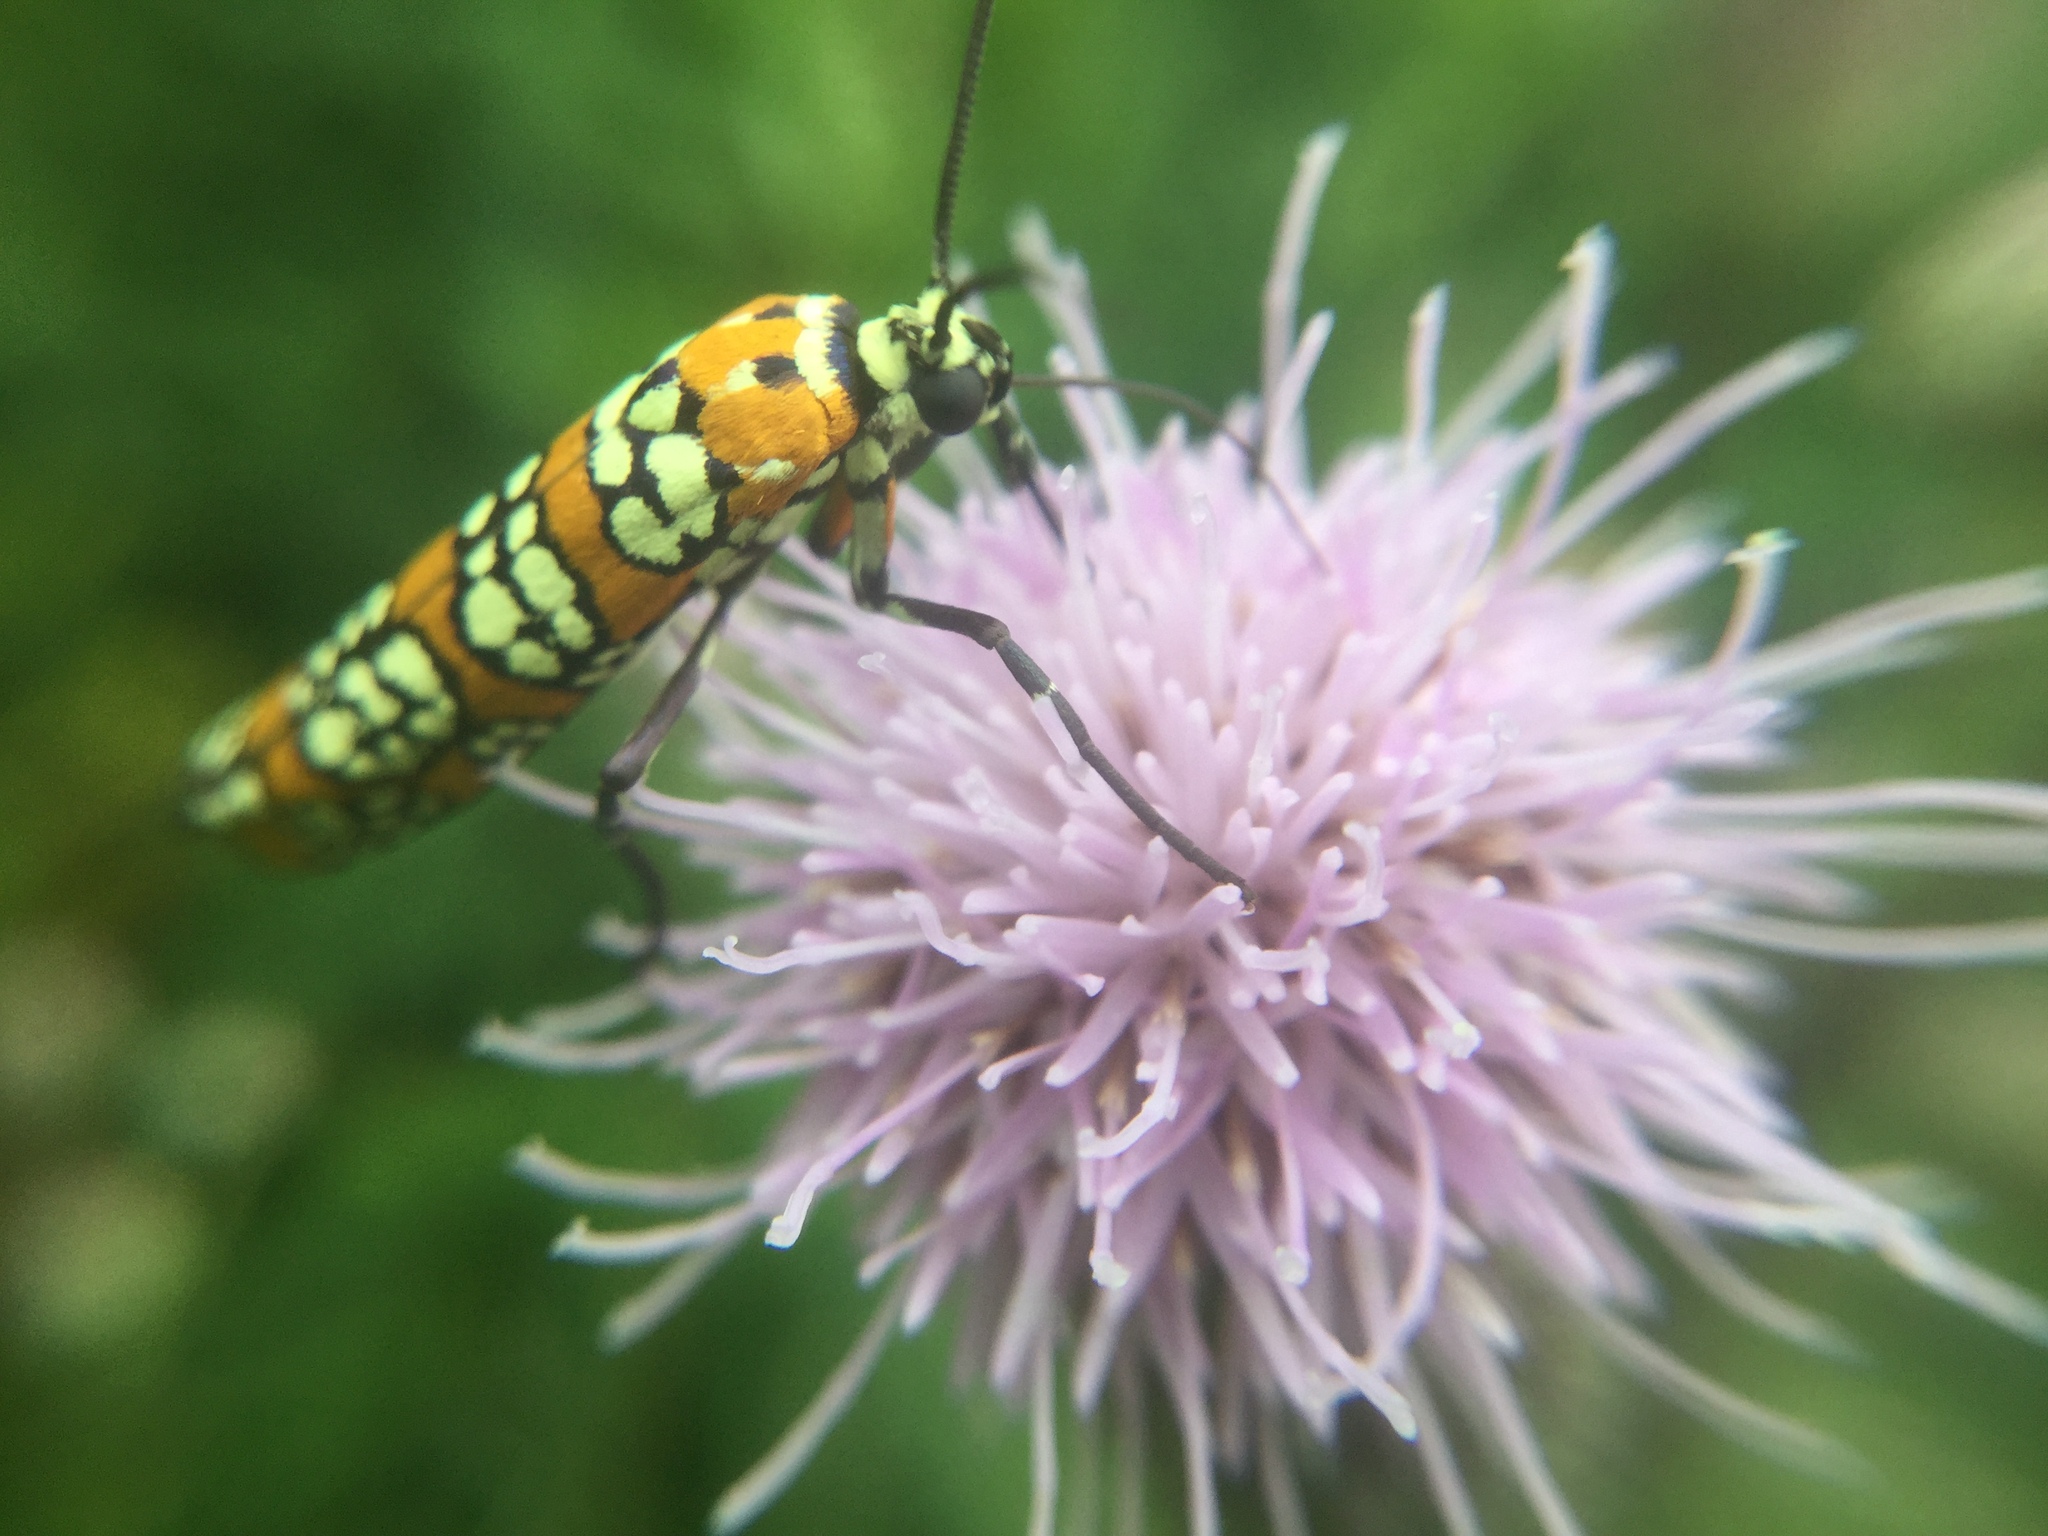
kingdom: Animalia
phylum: Arthropoda
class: Insecta
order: Lepidoptera
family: Attevidae
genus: Atteva
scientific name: Atteva punctella
